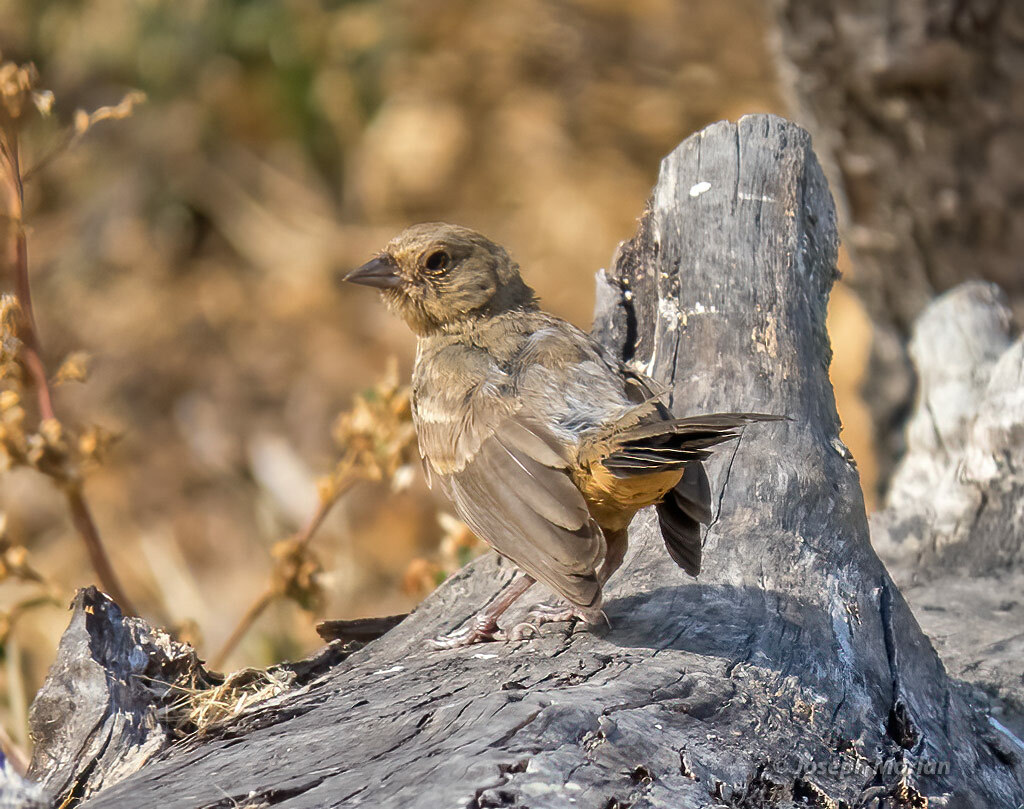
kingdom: Animalia
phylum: Chordata
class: Aves
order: Passeriformes
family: Passerellidae
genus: Melozone
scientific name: Melozone crissalis
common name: California towhee
